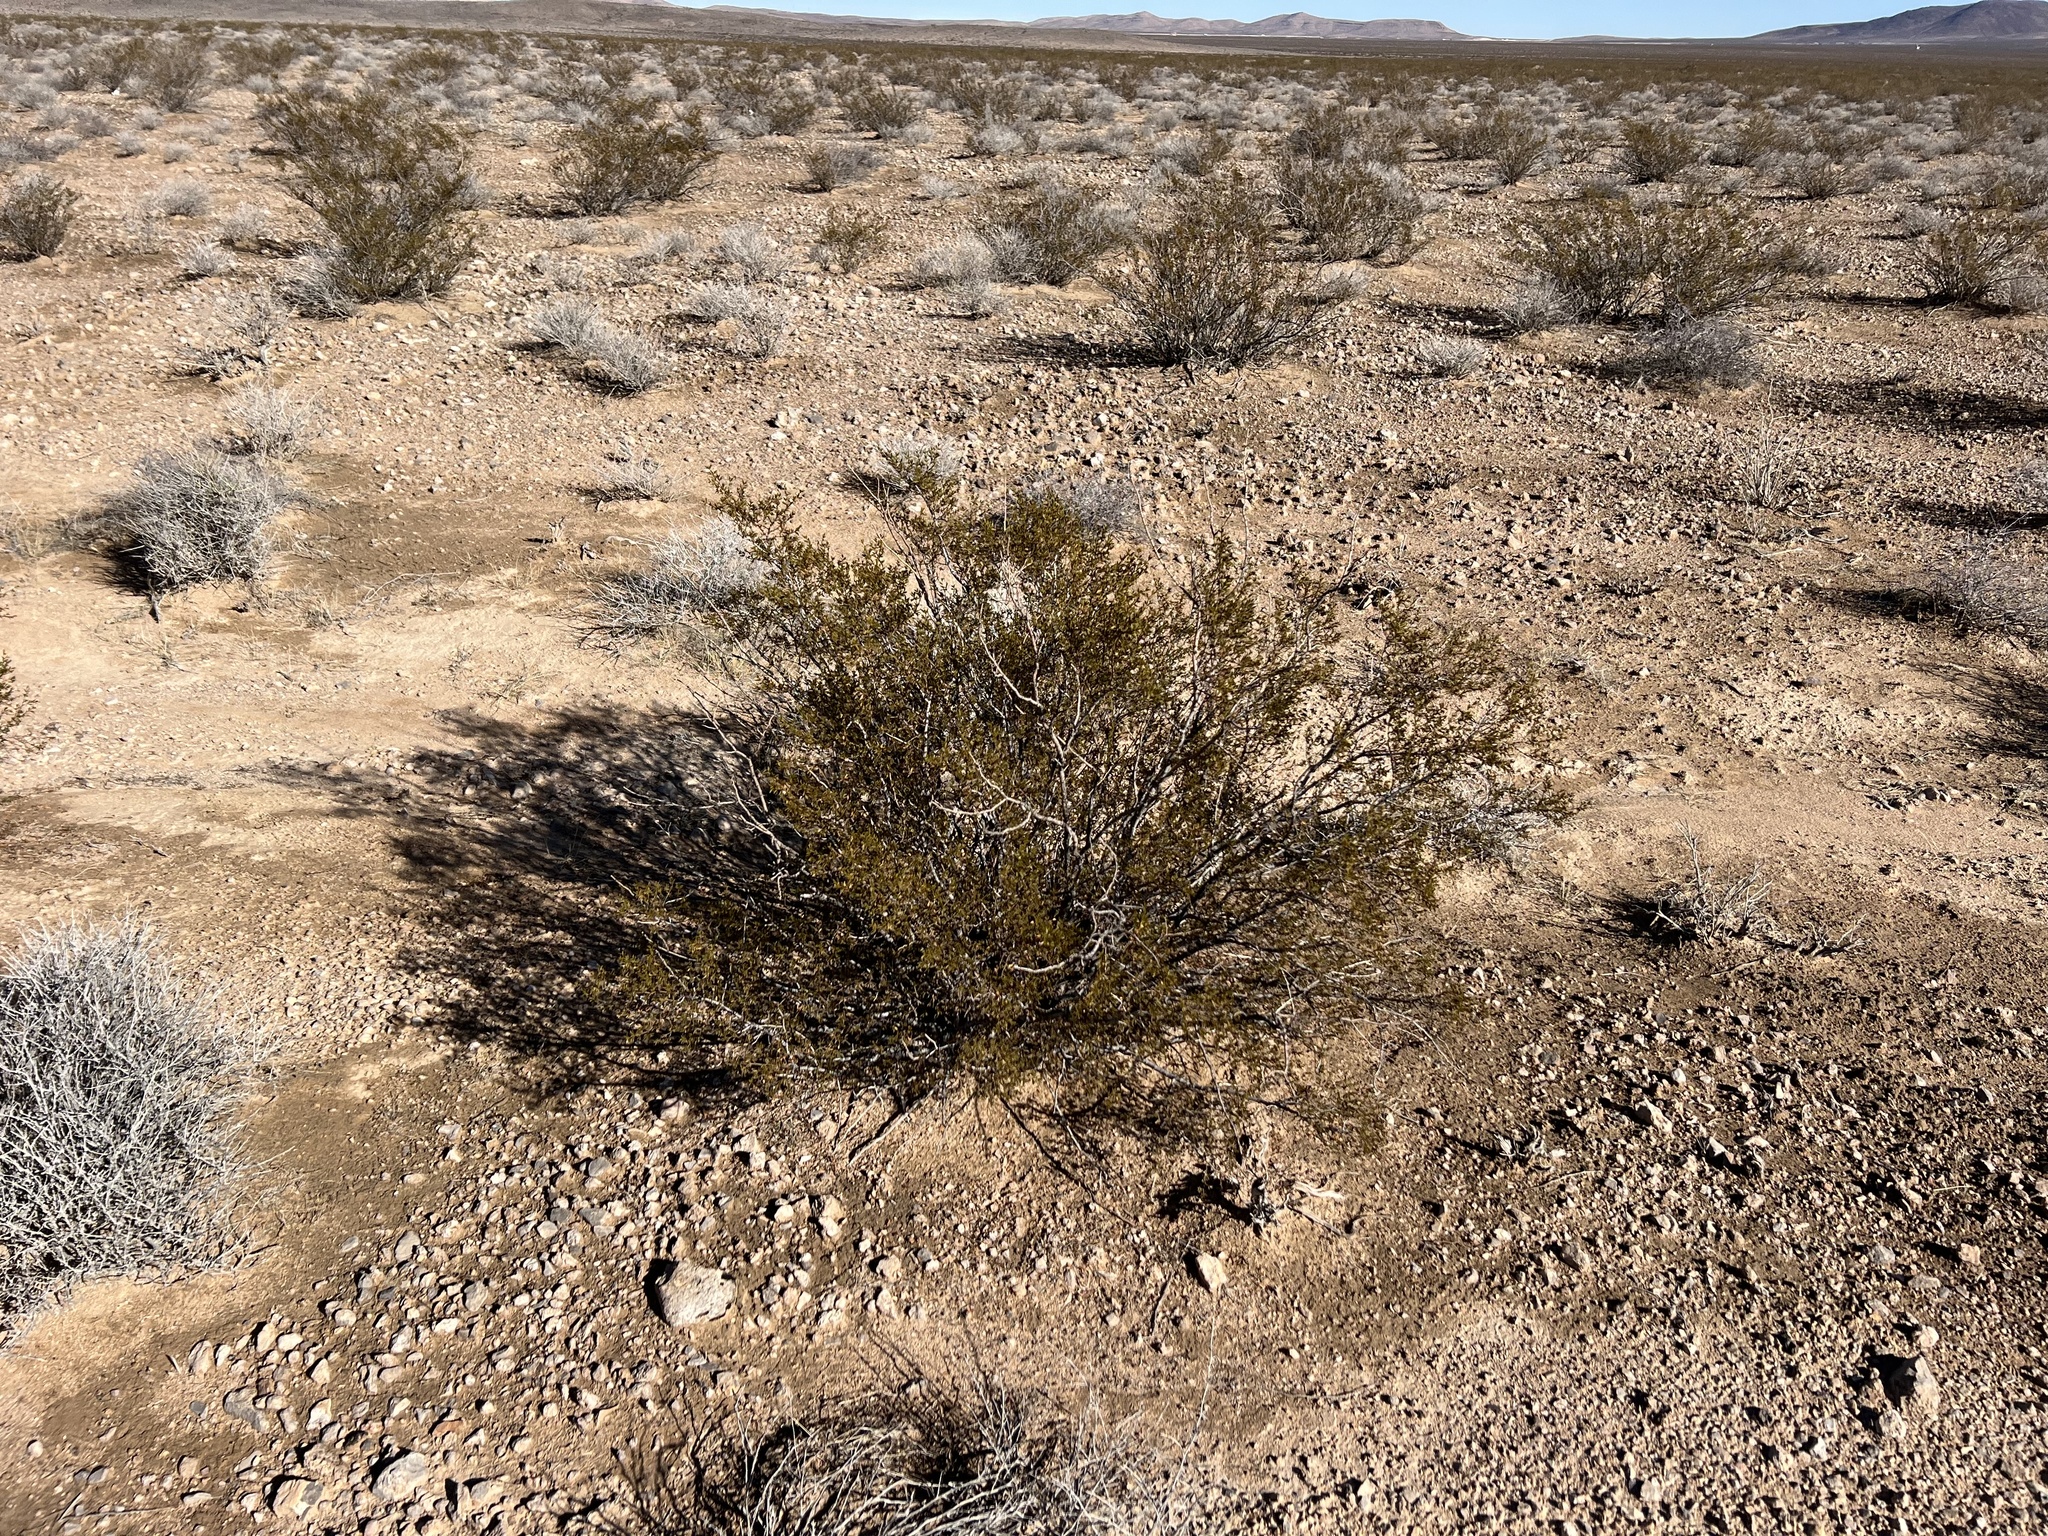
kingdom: Plantae
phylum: Tracheophyta
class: Magnoliopsida
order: Zygophyllales
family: Zygophyllaceae
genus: Larrea
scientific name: Larrea tridentata
